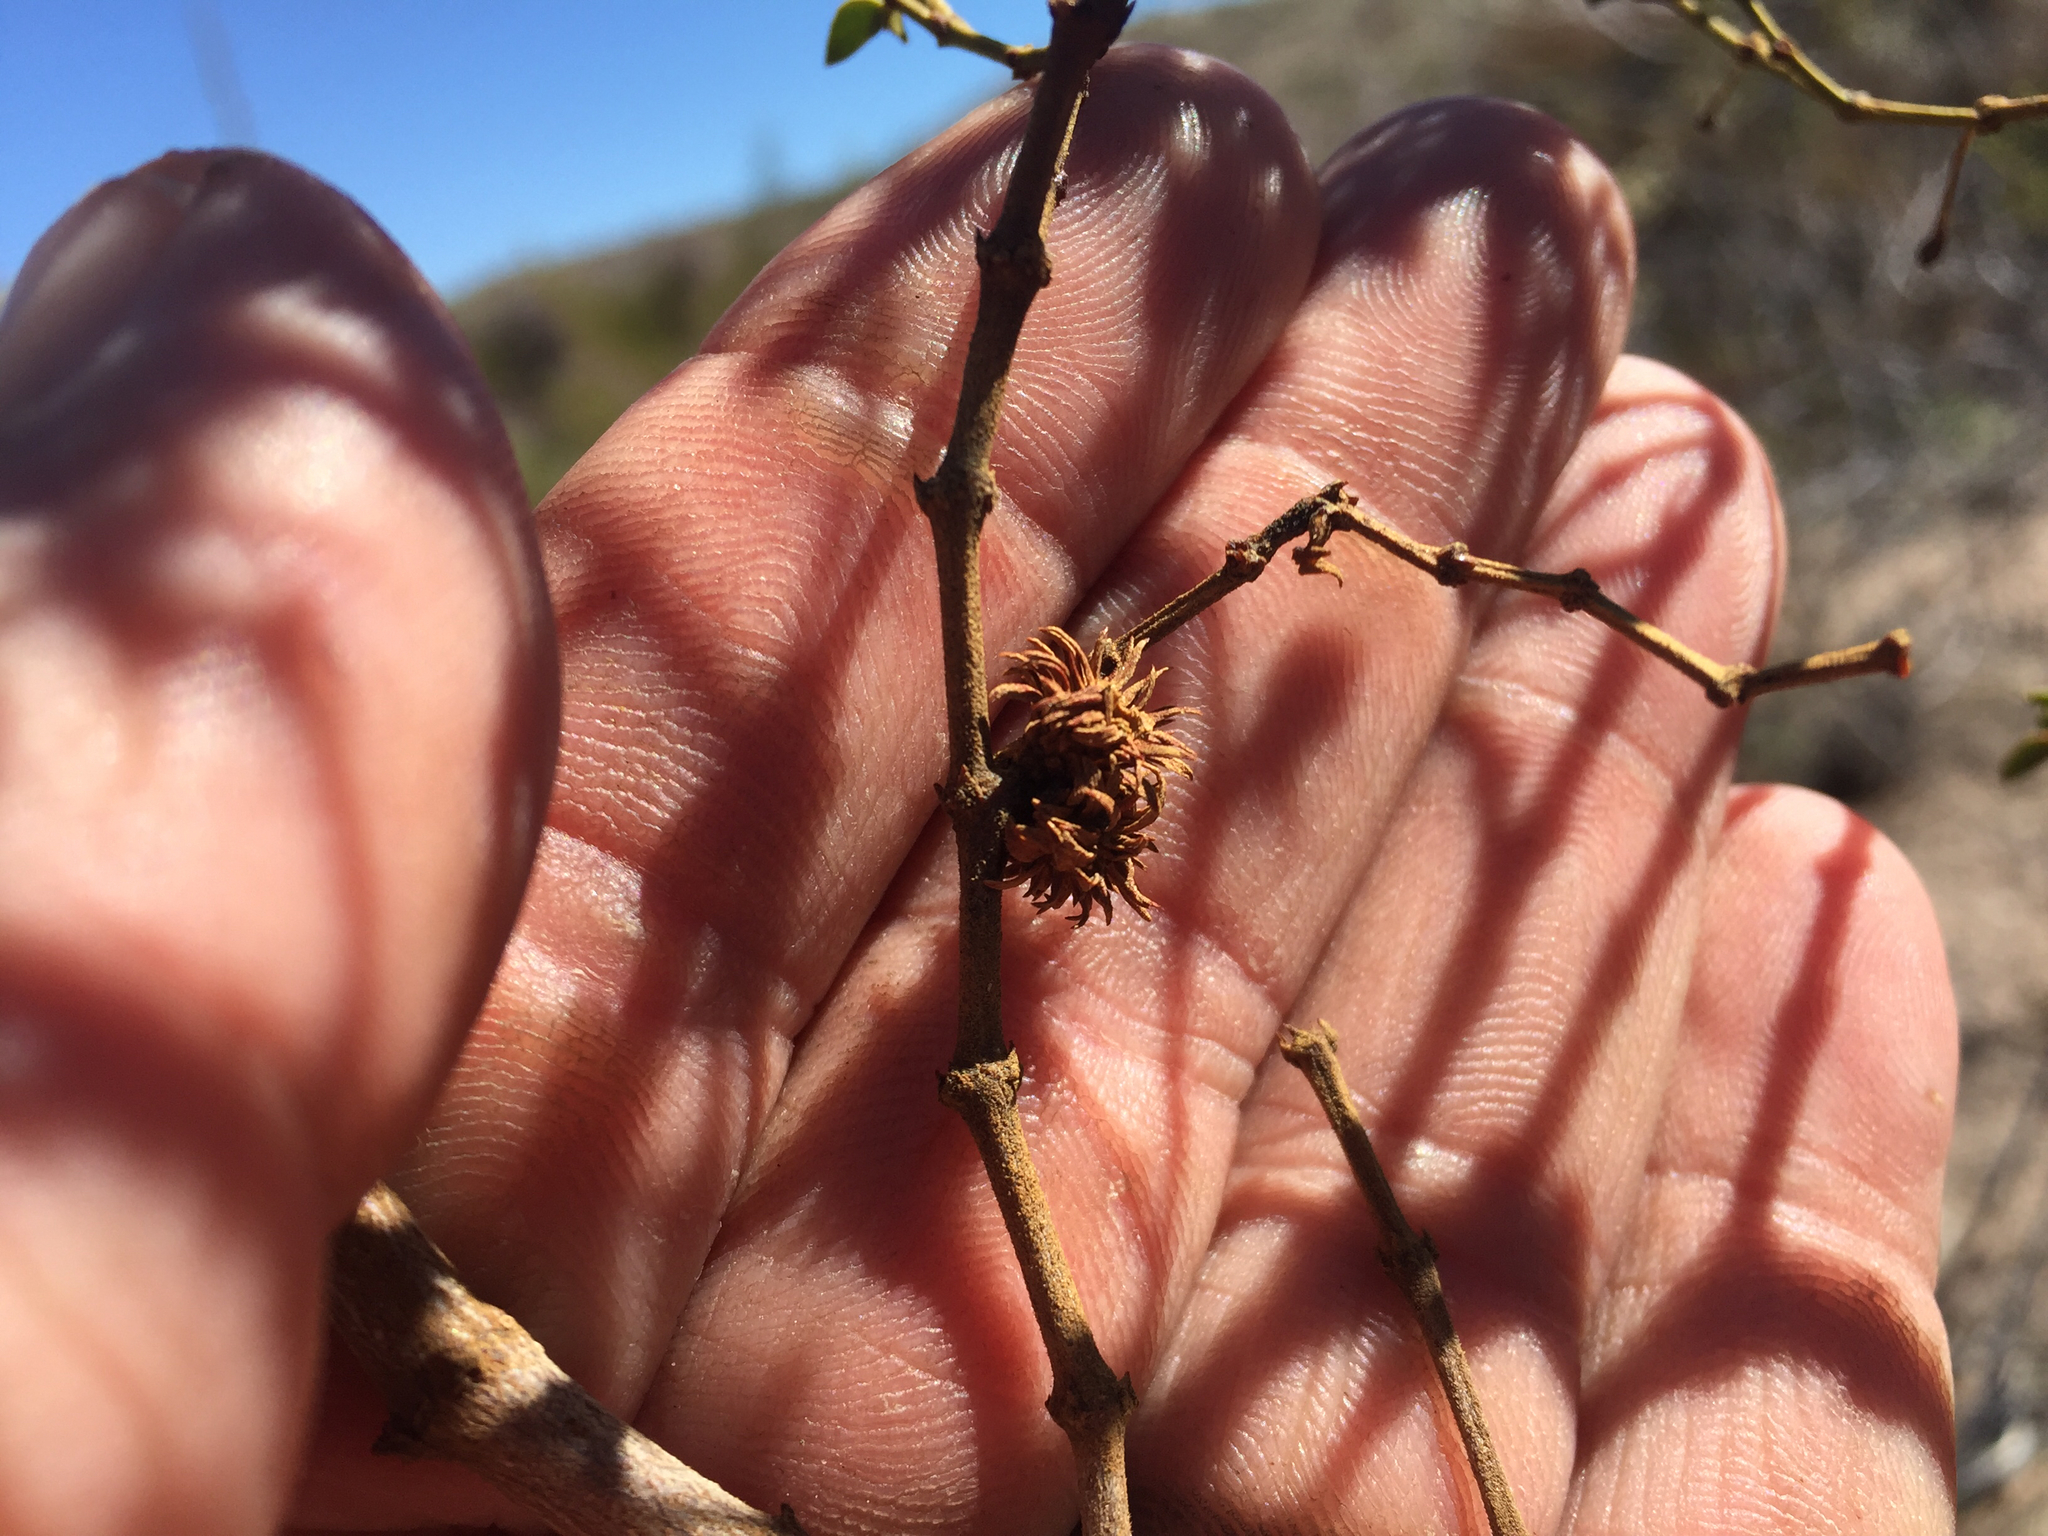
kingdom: Animalia
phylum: Arthropoda
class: Insecta
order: Diptera
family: Cecidomyiidae
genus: Asphondylia
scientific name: Asphondylia rosetta
